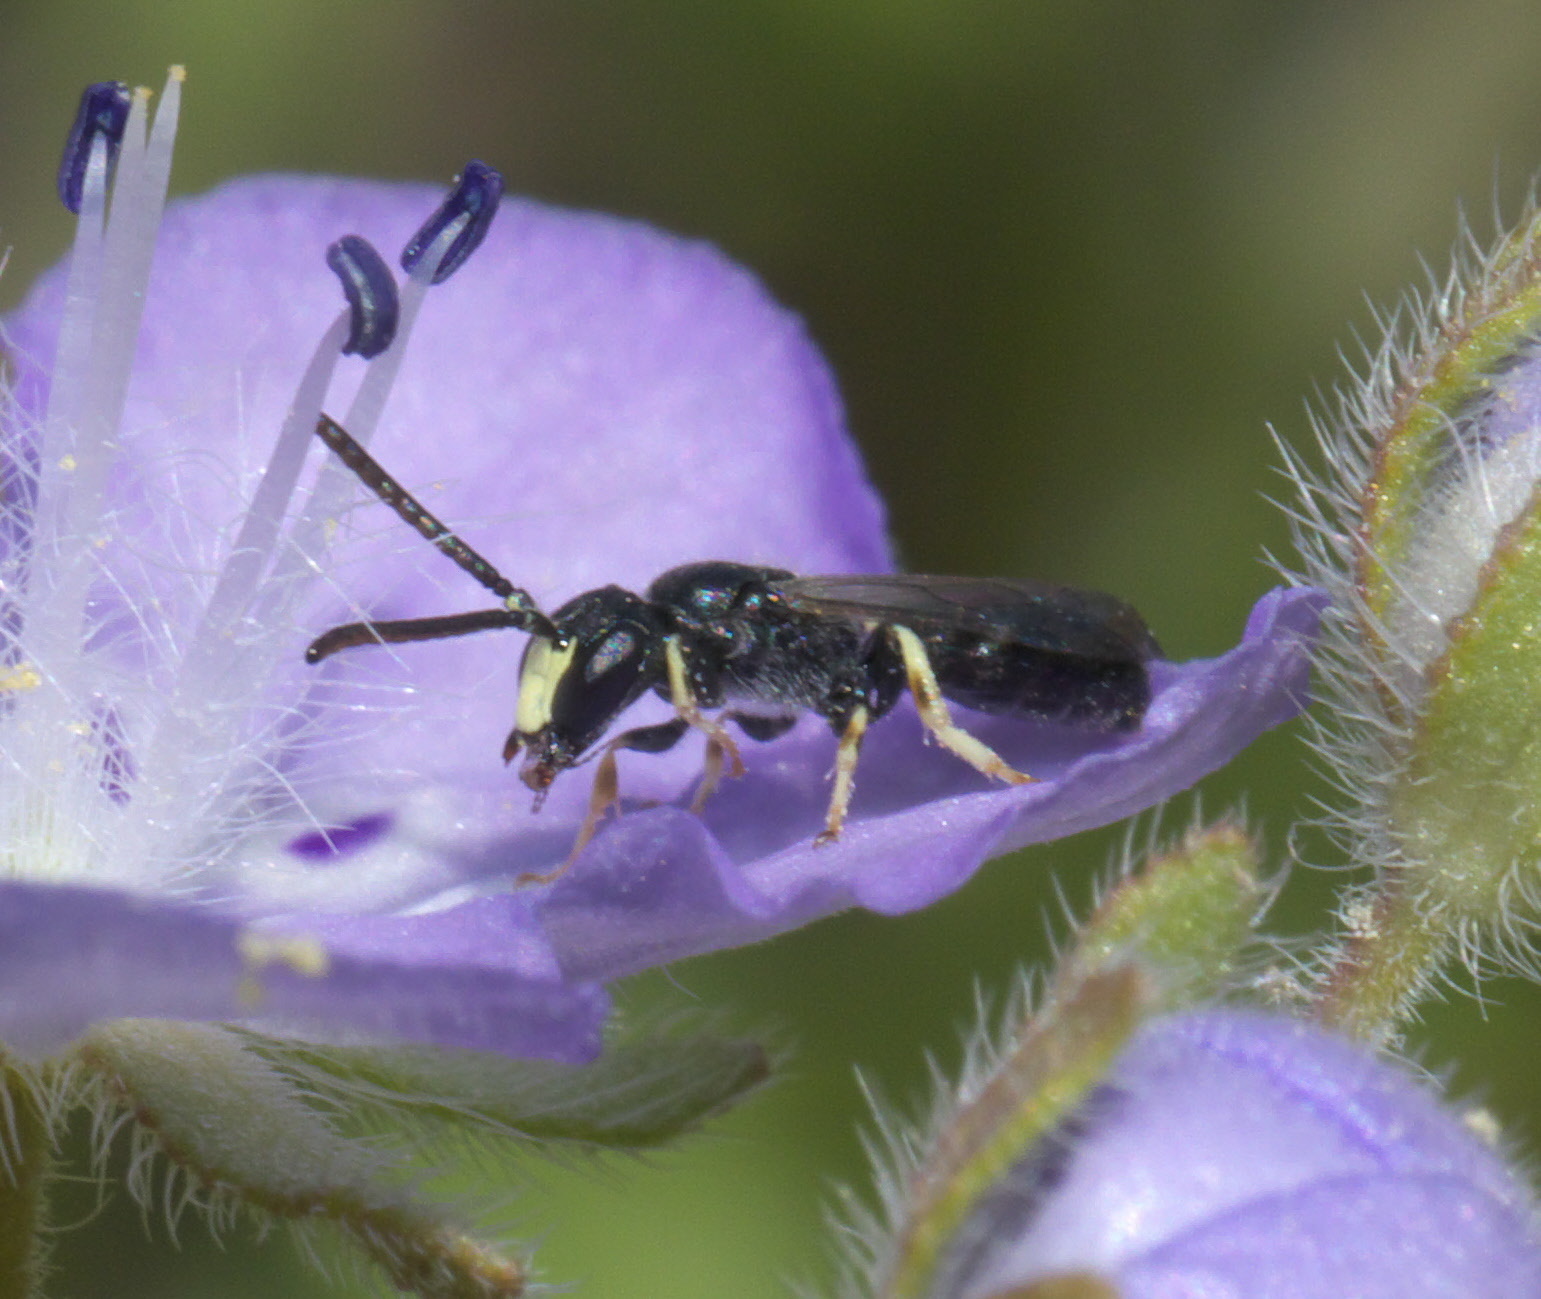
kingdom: Animalia
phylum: Arthropoda
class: Insecta
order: Hymenoptera
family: Colletidae
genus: Hylaeus
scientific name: Hylaeus mesillae
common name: Mesilla masked bee
